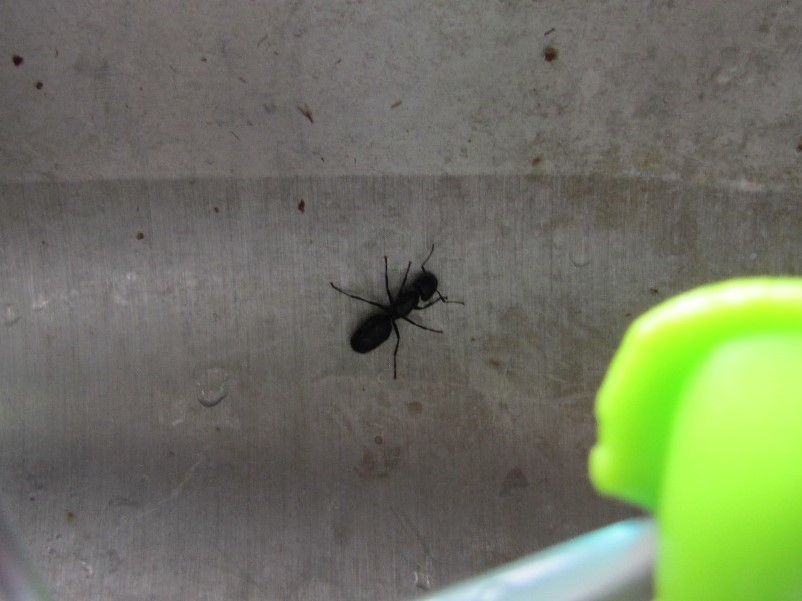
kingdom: Animalia
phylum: Arthropoda
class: Insecta
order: Hymenoptera
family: Formicidae
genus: Camponotus
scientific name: Camponotus pennsylvanicus
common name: Black carpenter ant
